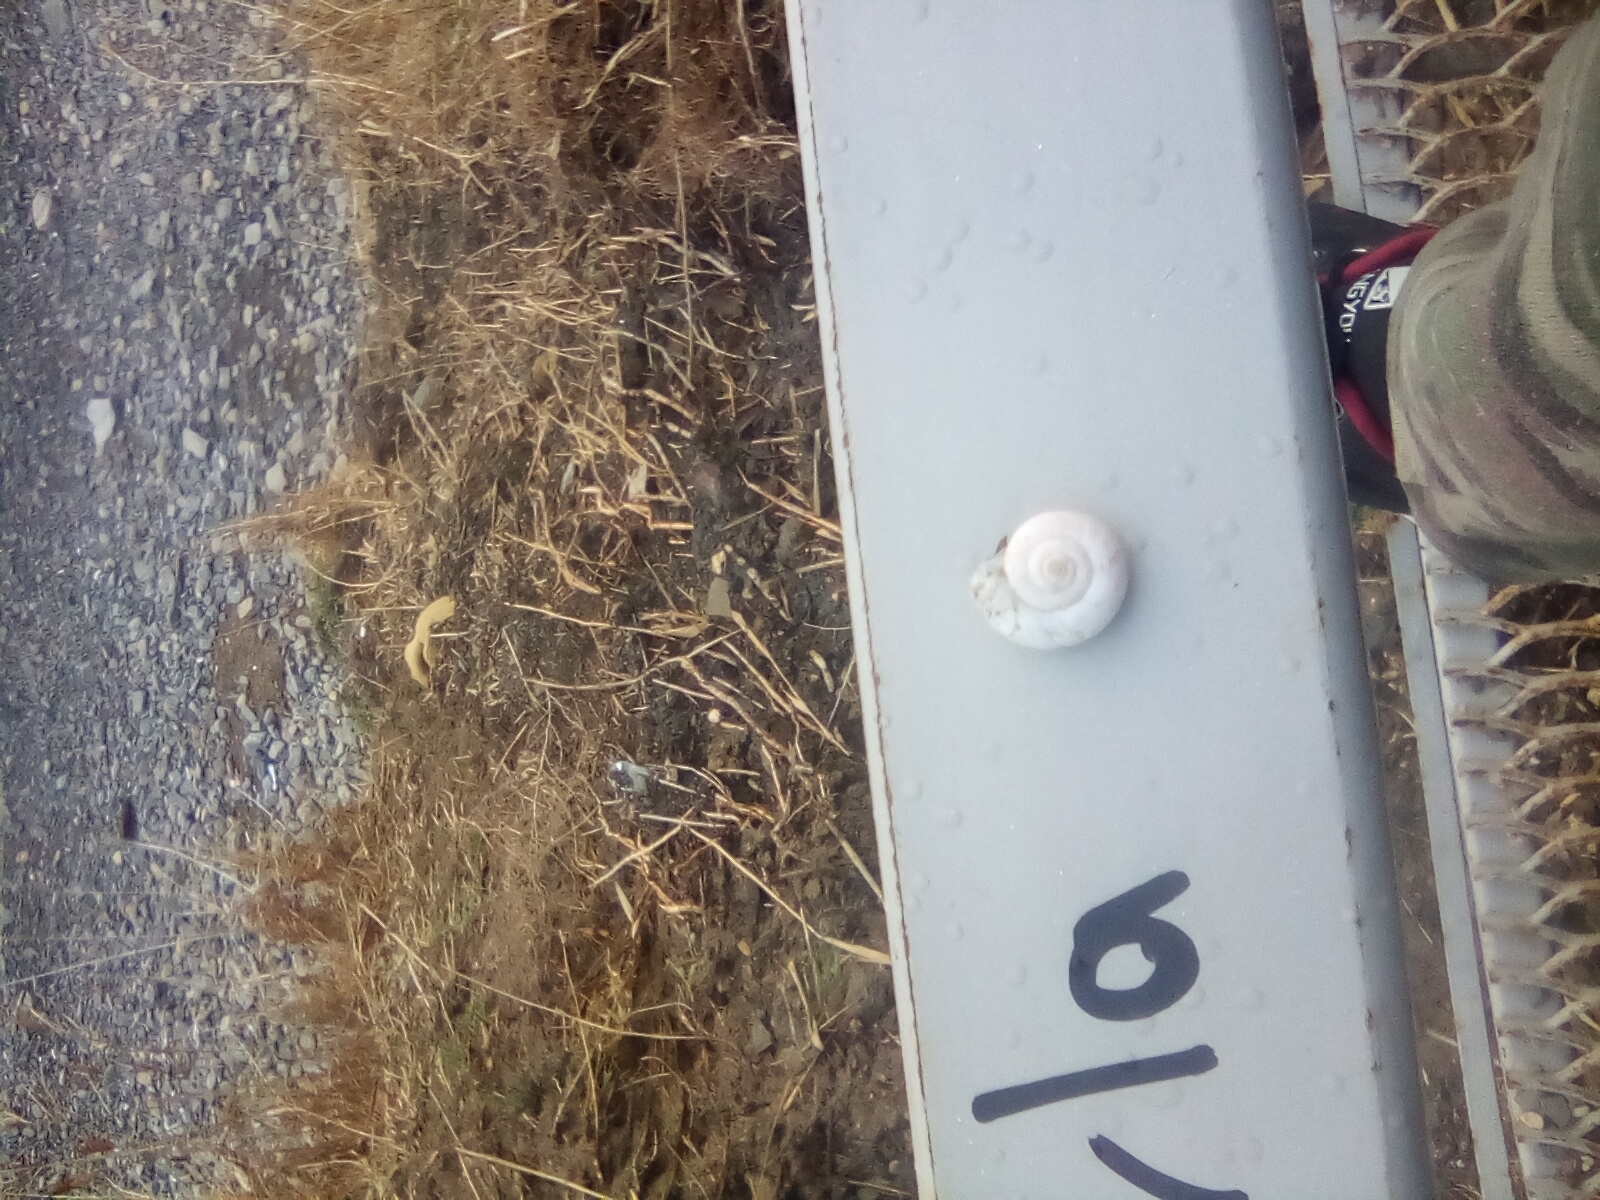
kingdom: Animalia
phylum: Mollusca
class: Gastropoda
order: Stylommatophora
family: Geomitridae
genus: Xeropicta
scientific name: Xeropicta derbentina
